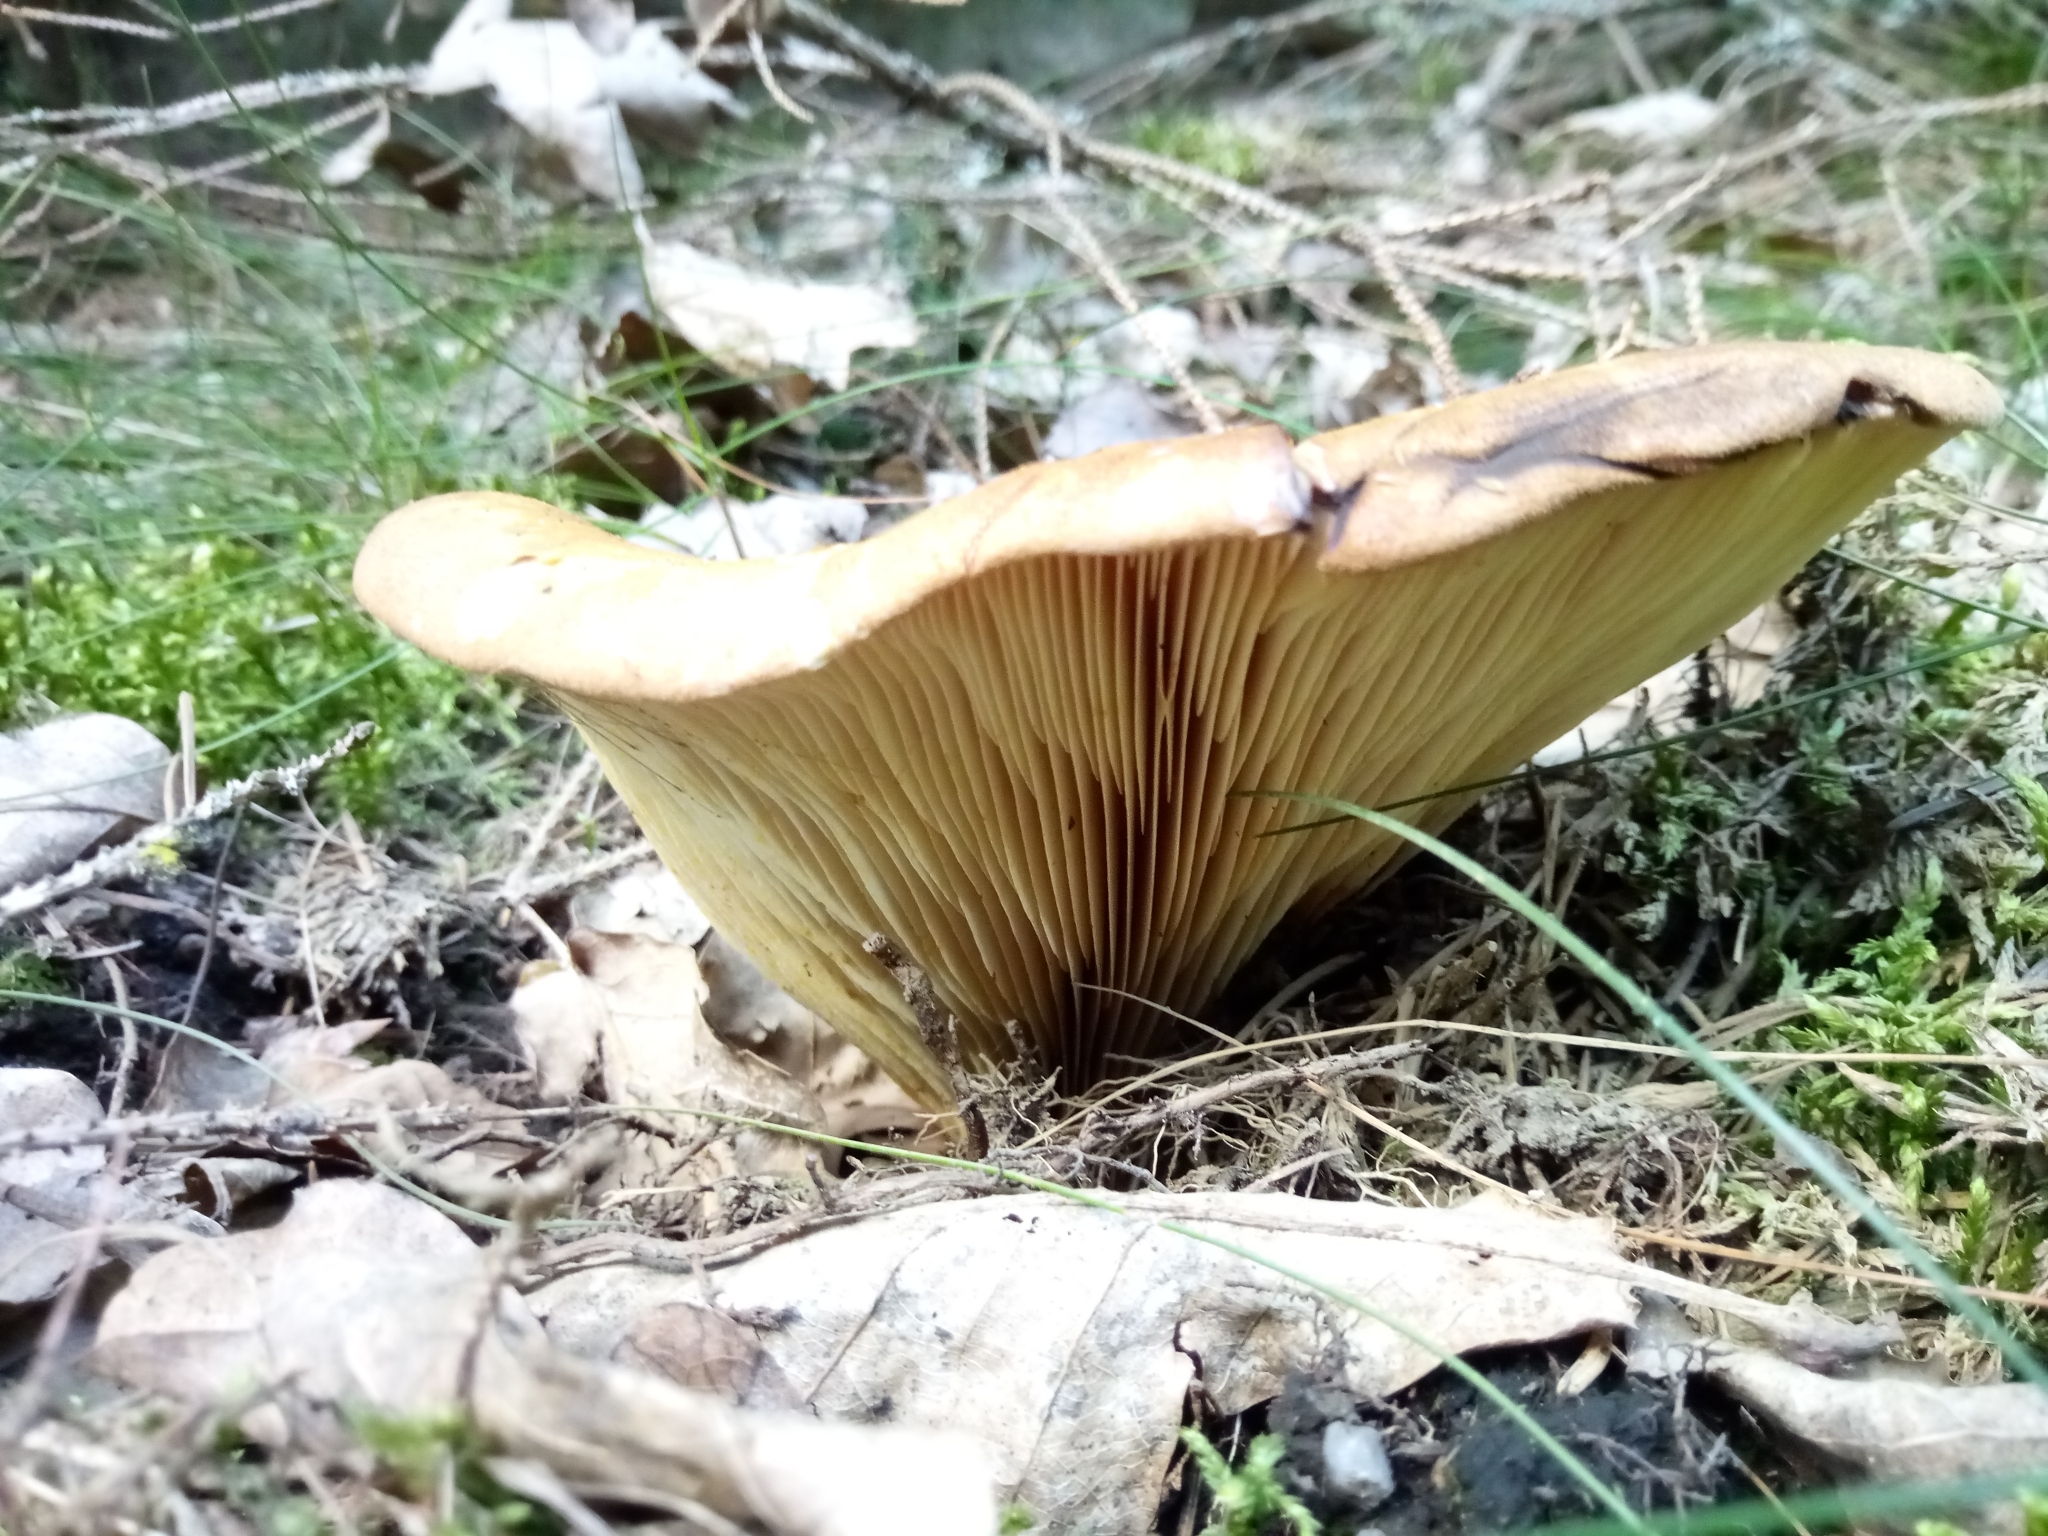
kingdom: Fungi
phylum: Basidiomycota
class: Agaricomycetes
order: Boletales
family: Tapinellaceae
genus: Tapinella
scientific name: Tapinella atrotomentosa
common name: Velvet rollrim
